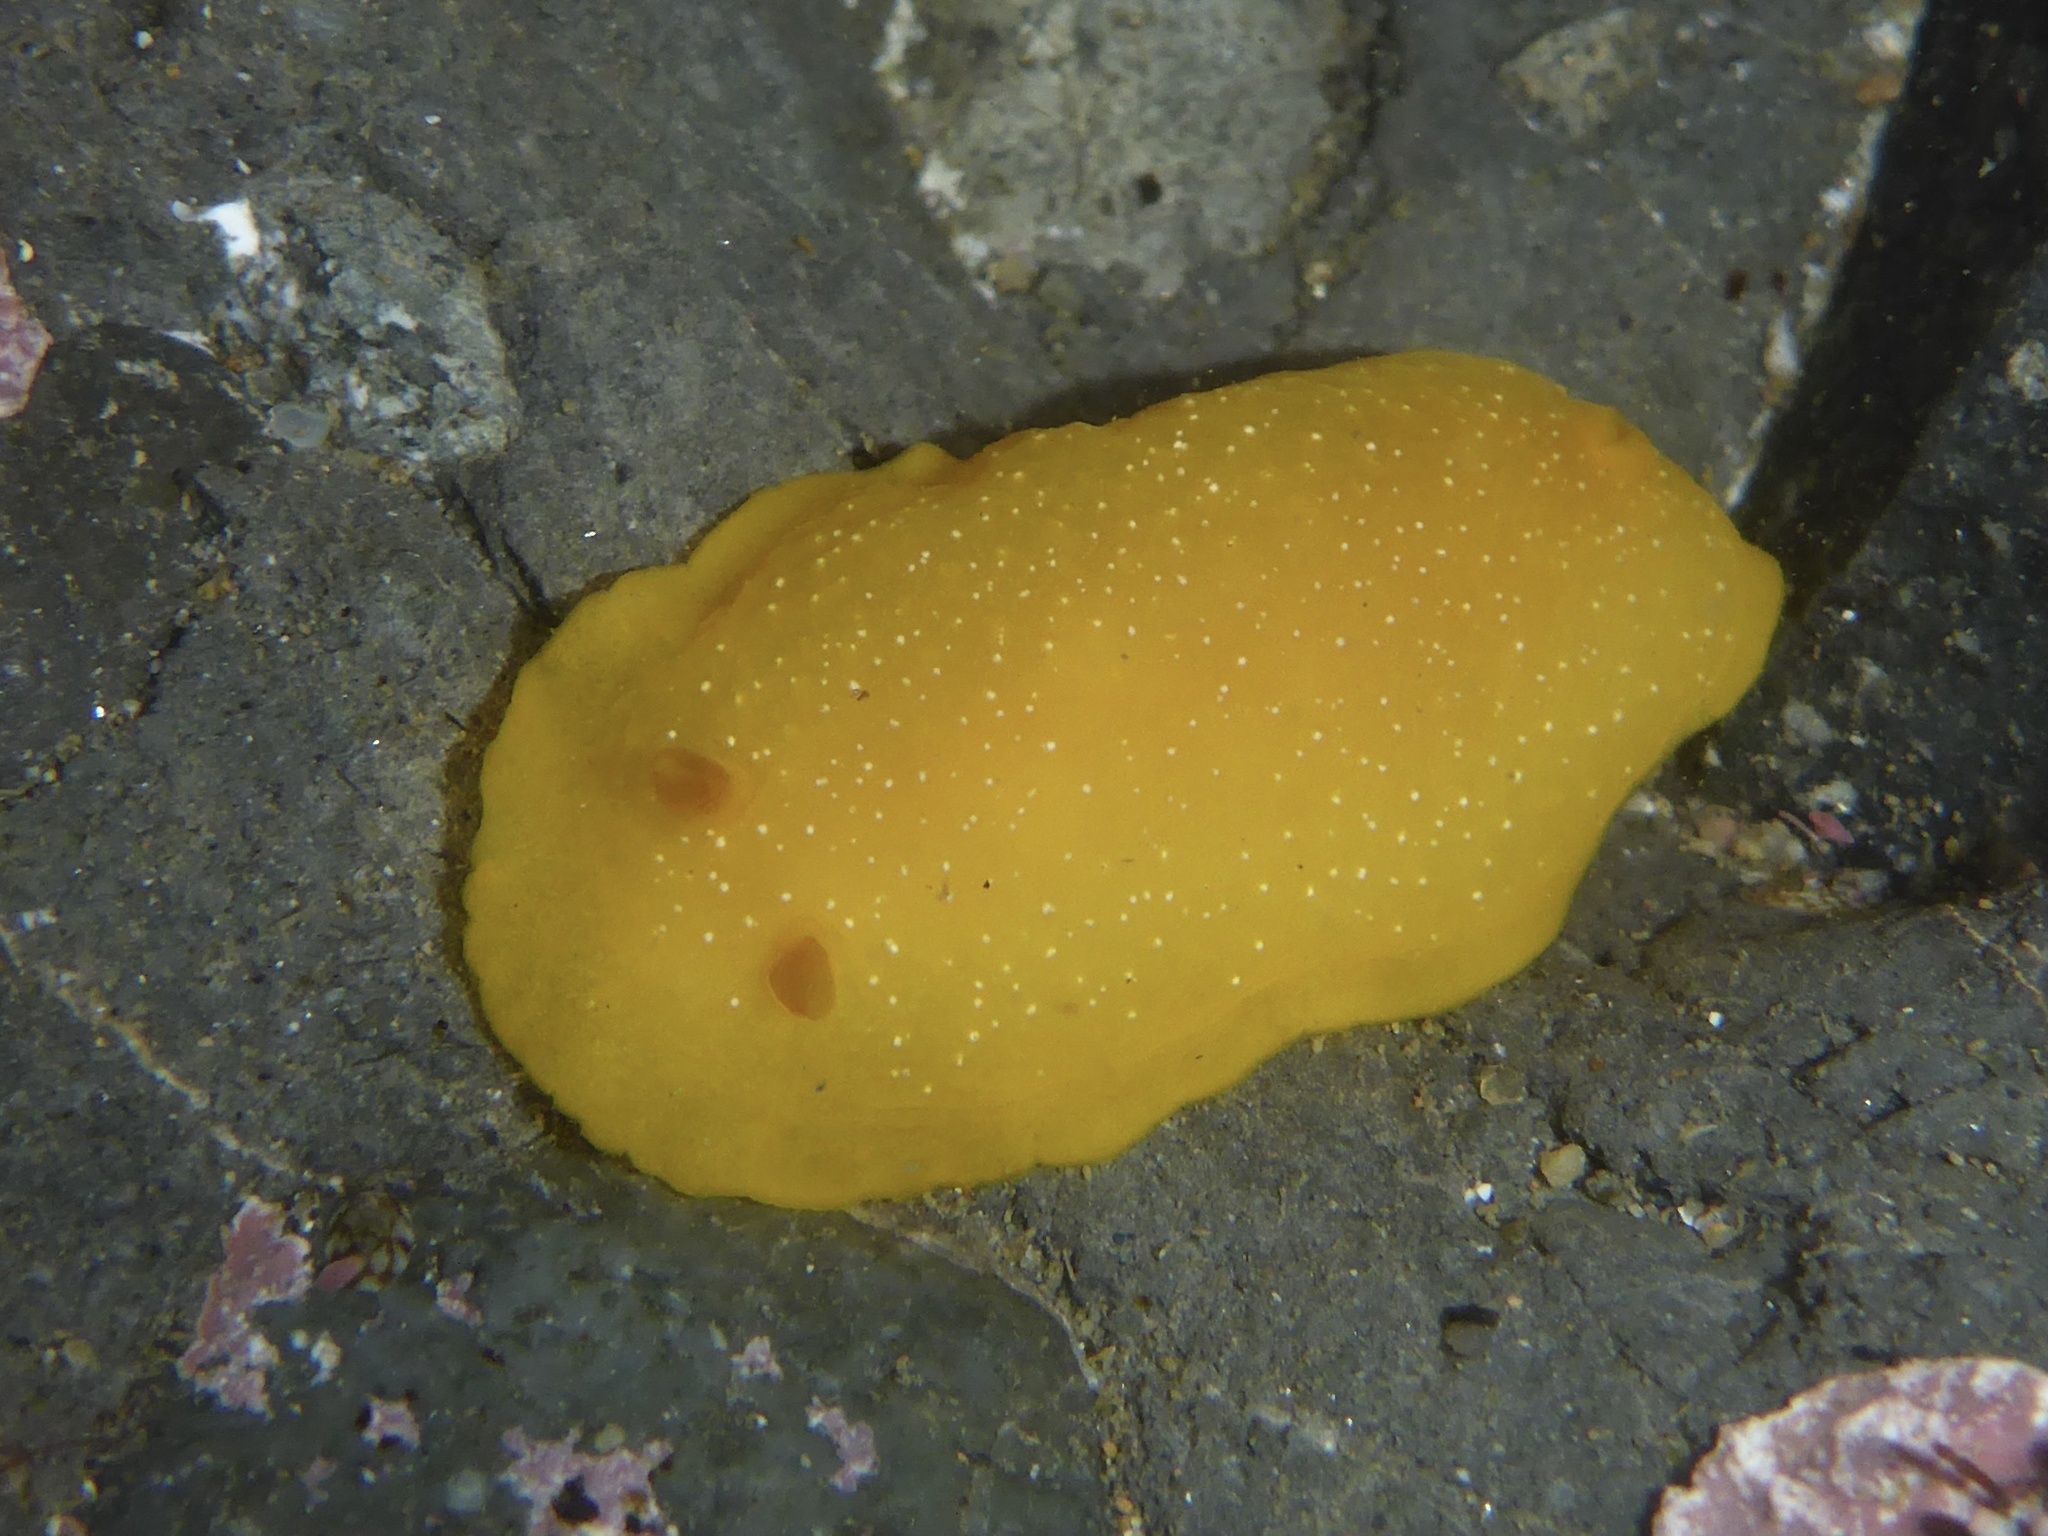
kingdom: Animalia
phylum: Mollusca
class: Gastropoda
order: Nudibranchia
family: Dendrodorididae
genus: Doriopsilla
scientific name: Doriopsilla fulva
